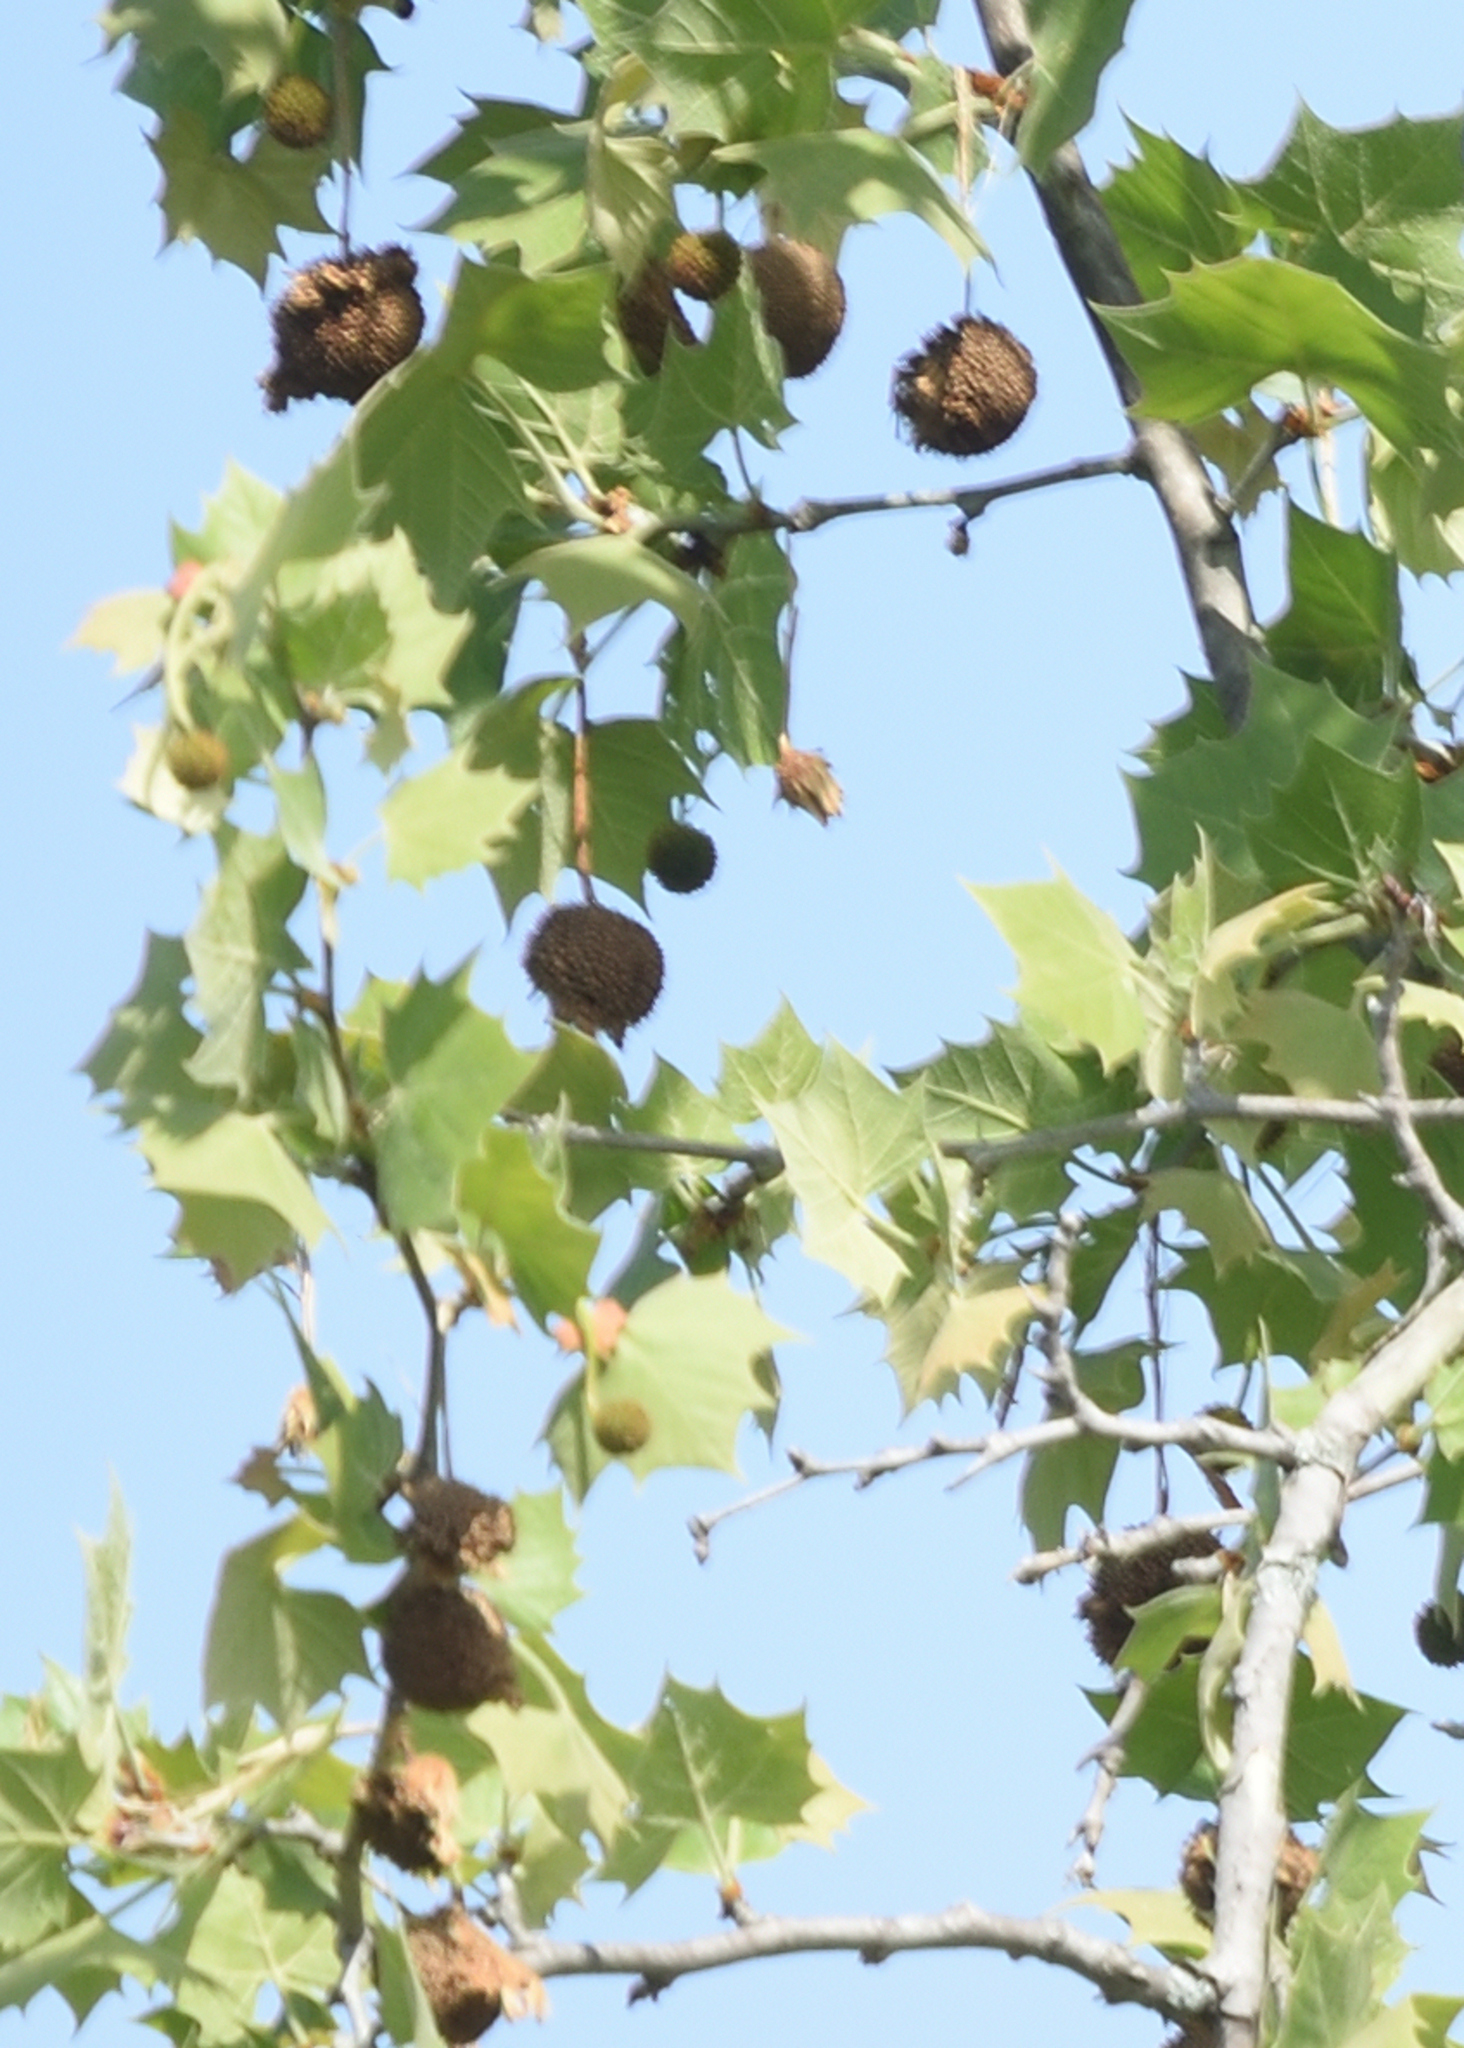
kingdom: Plantae
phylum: Tracheophyta
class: Magnoliopsida
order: Proteales
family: Platanaceae
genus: Platanus
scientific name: Platanus occidentalis
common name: American sycamore
